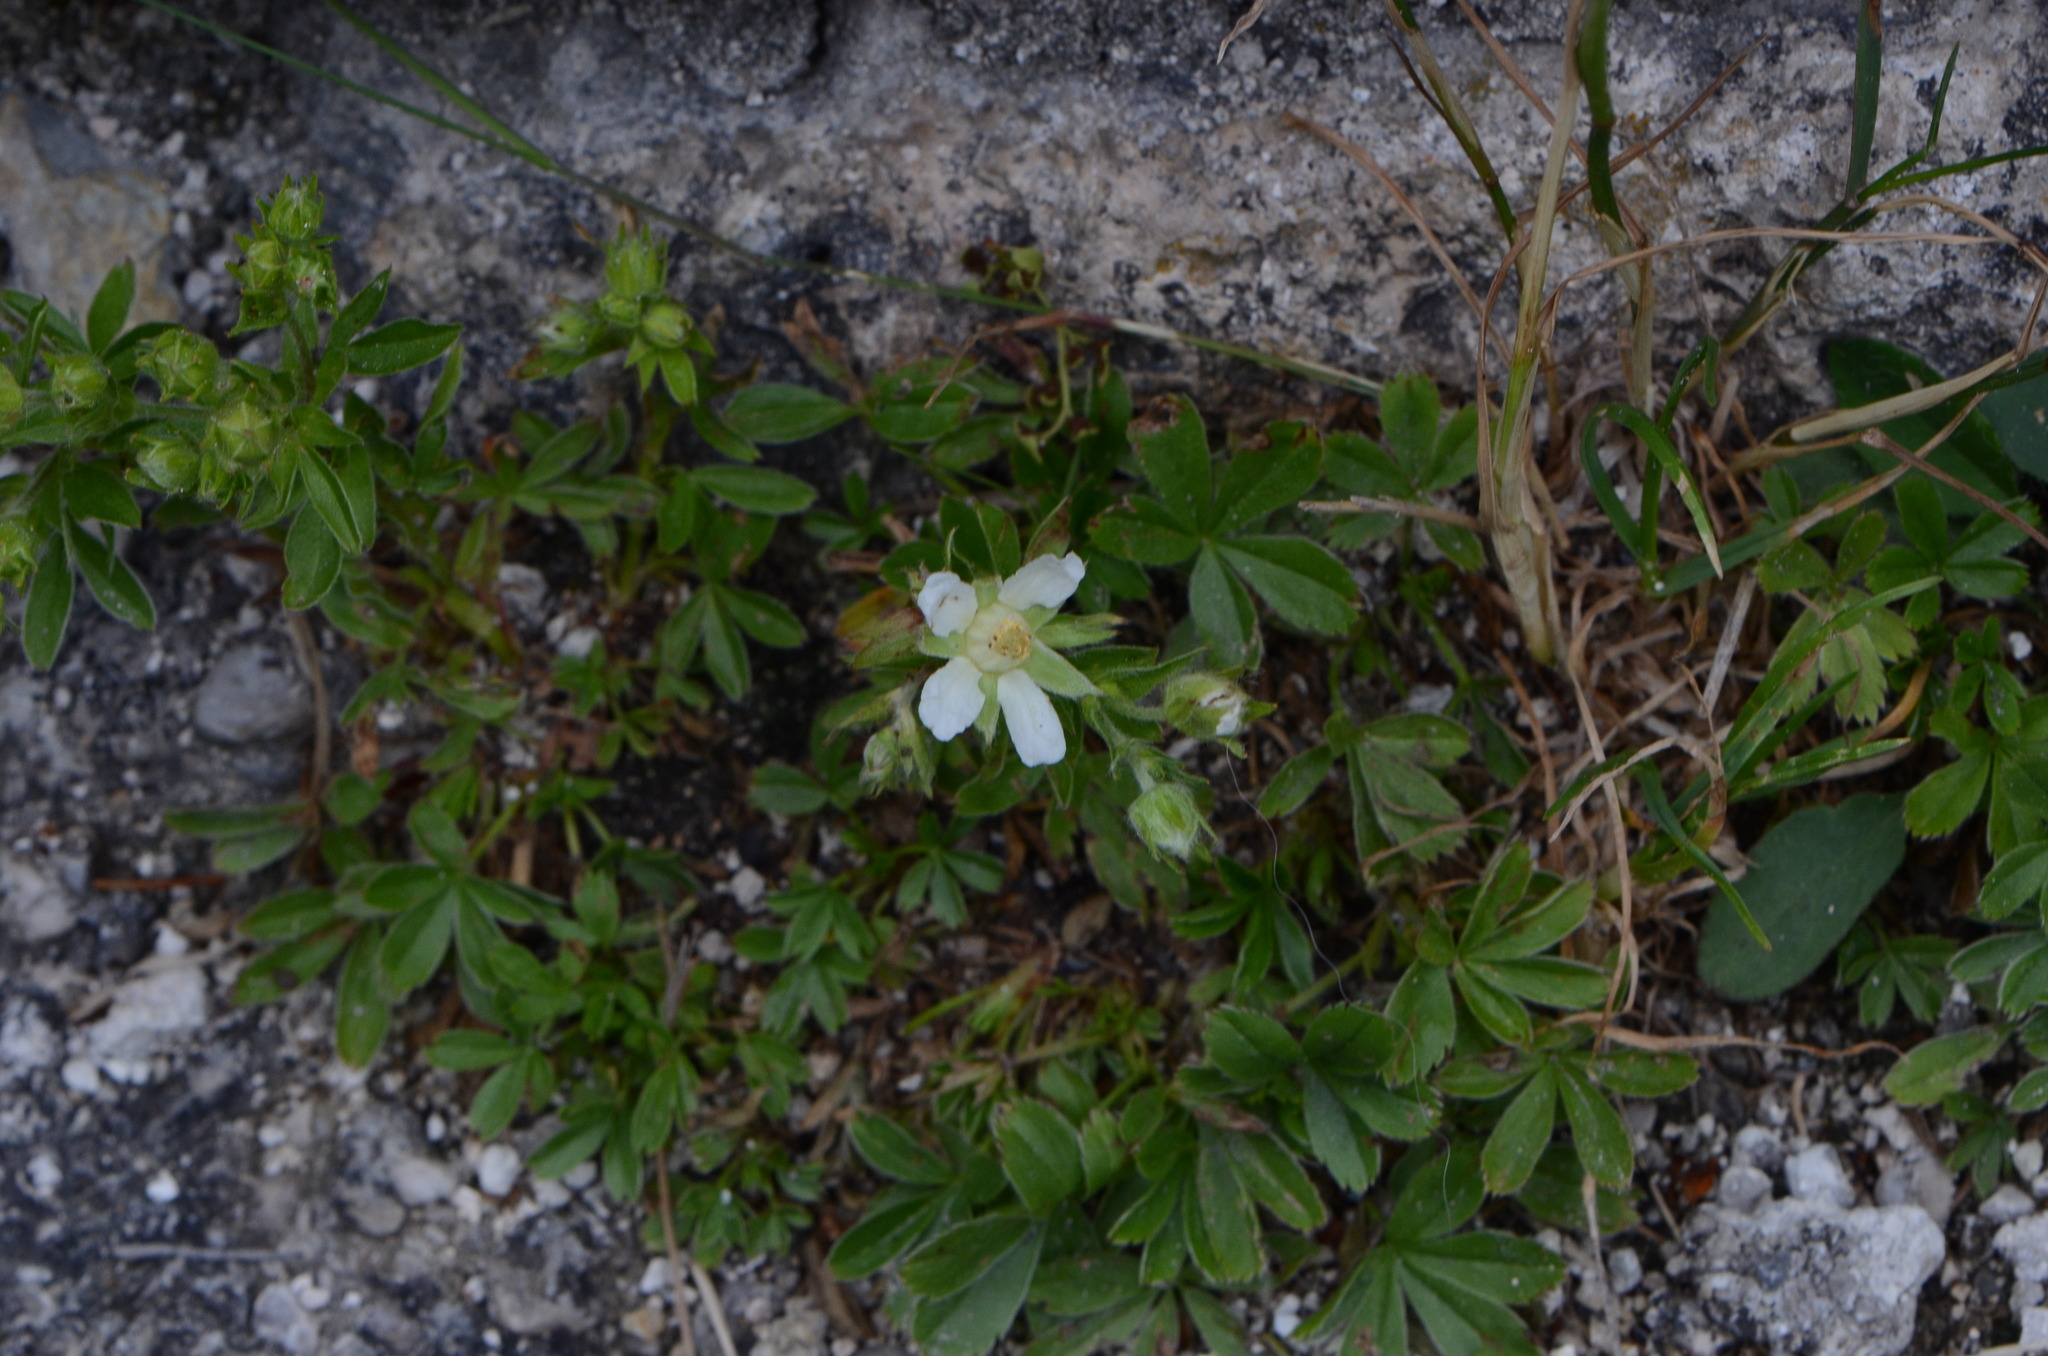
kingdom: Plantae
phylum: Tracheophyta
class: Magnoliopsida
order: Rosales
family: Rosaceae
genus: Potentilla
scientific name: Potentilla caulescens
